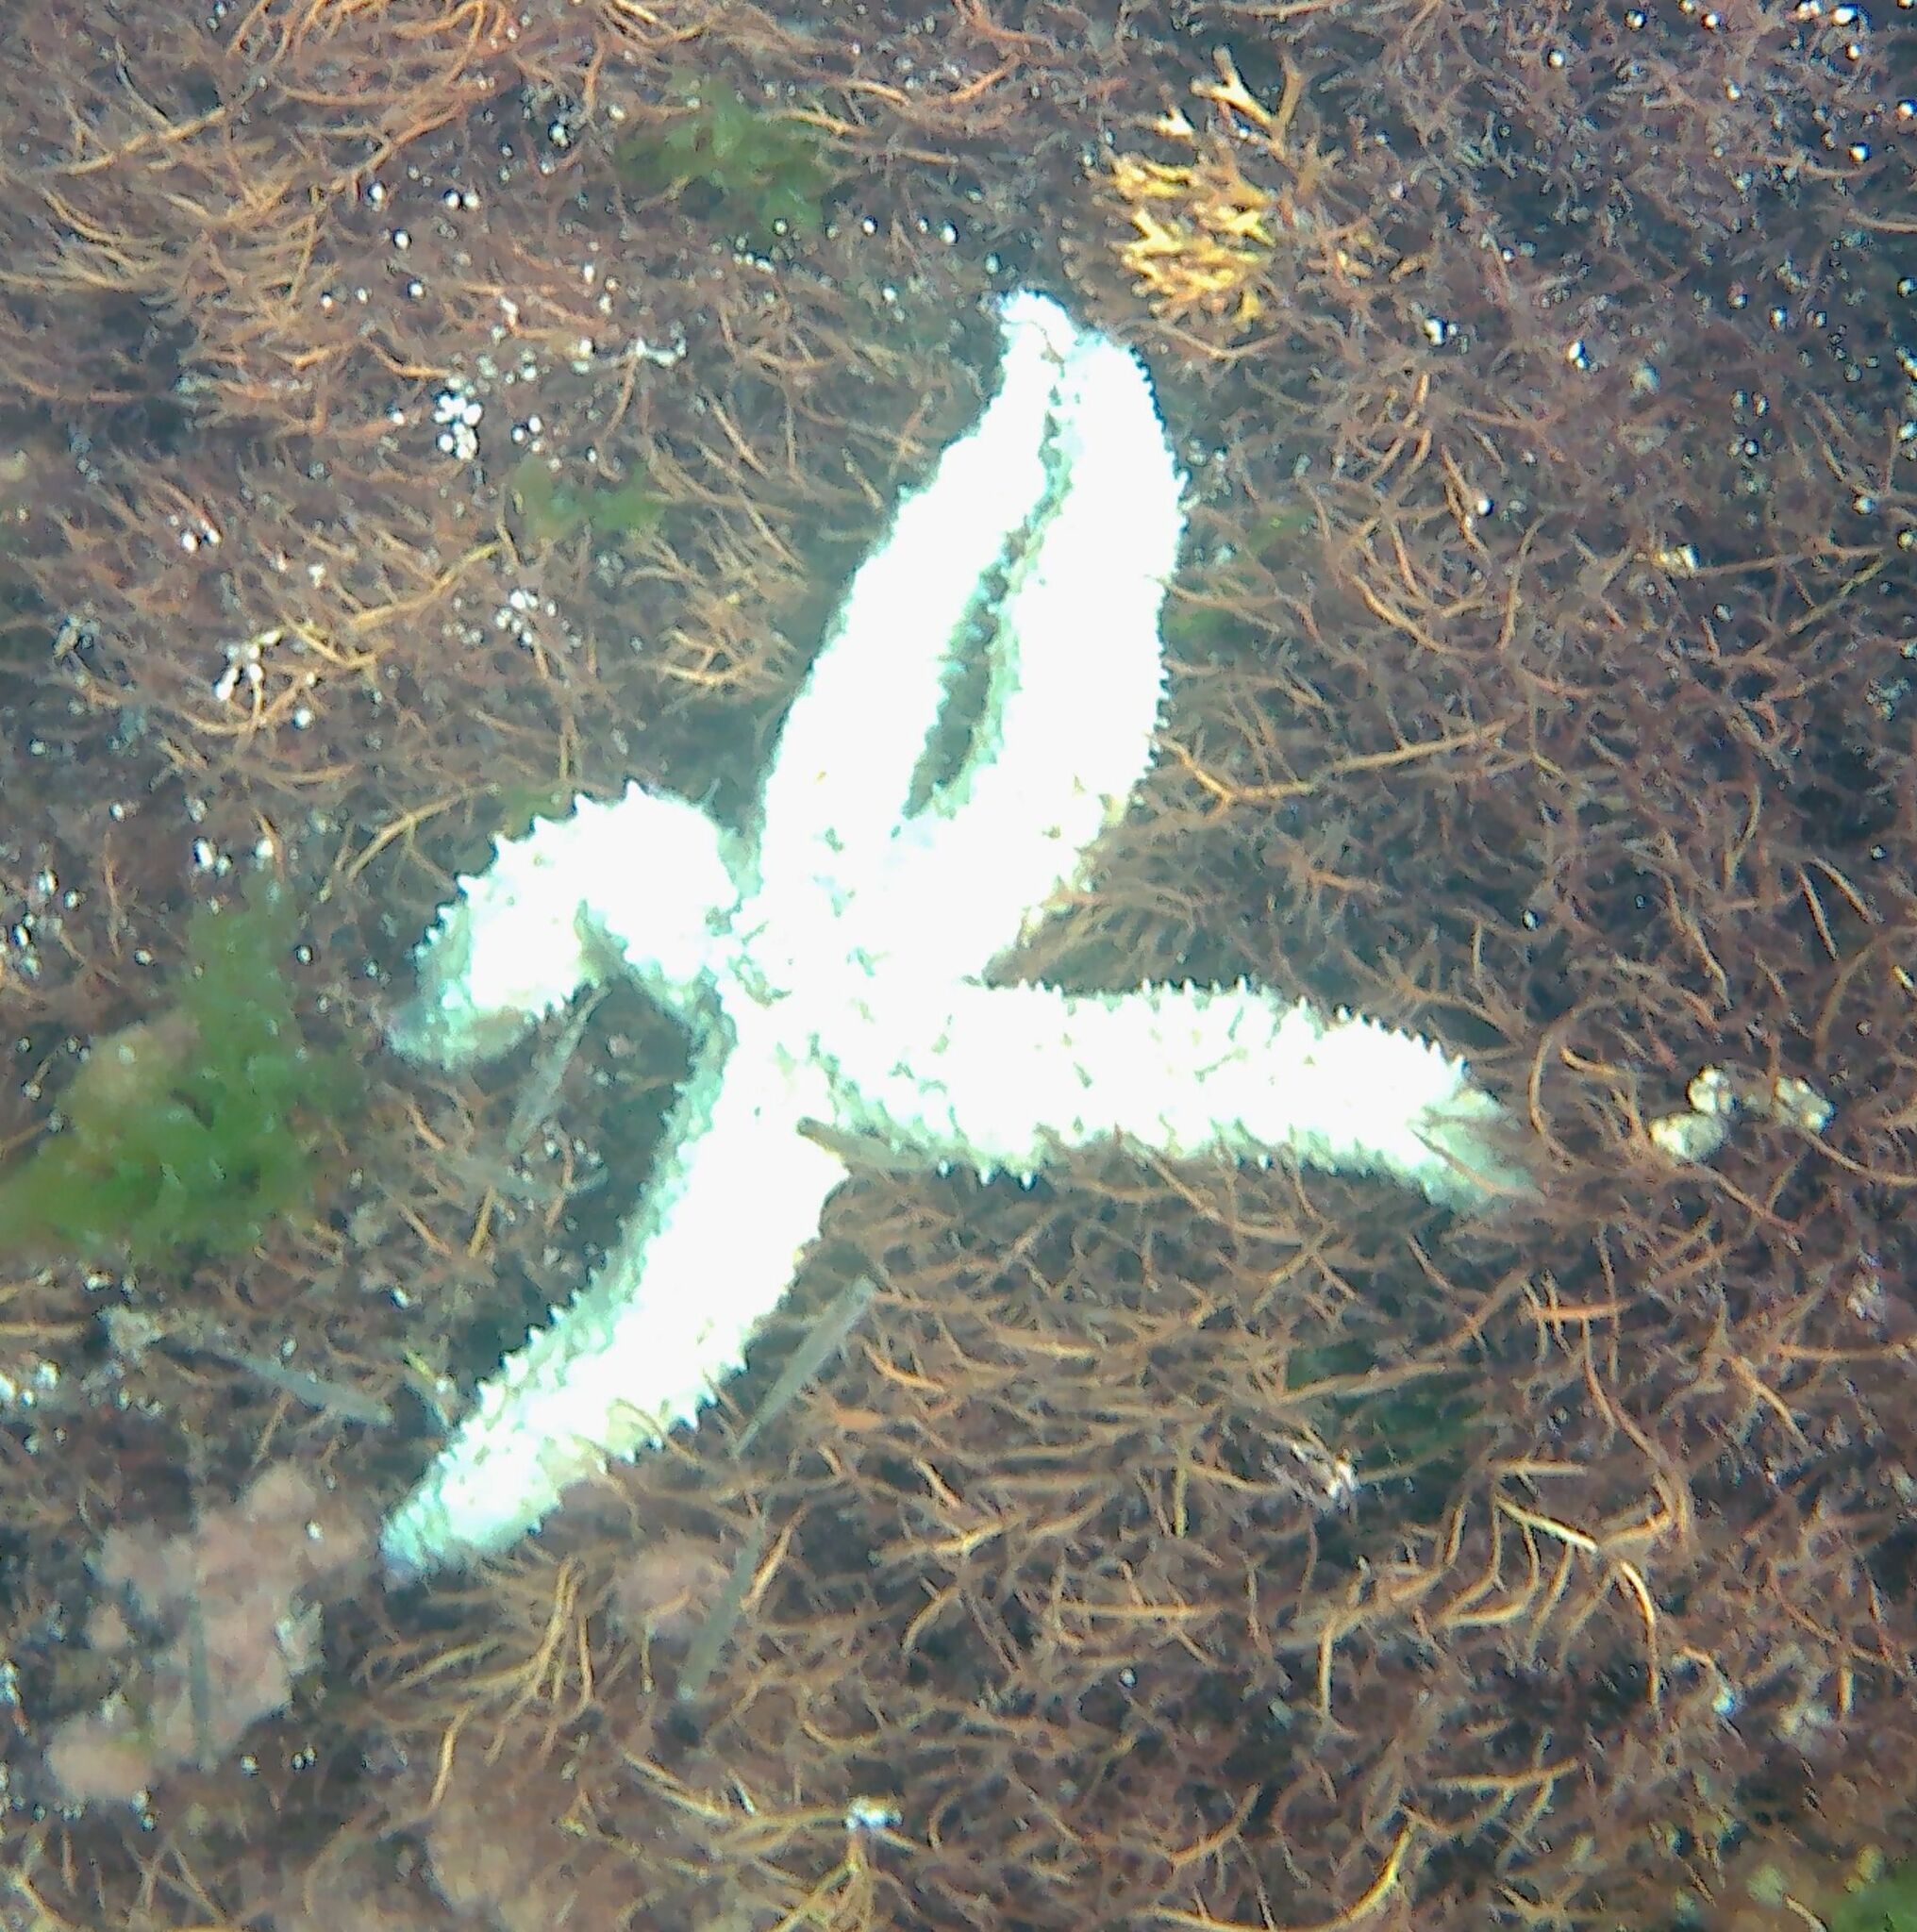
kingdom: Animalia
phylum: Echinodermata
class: Asteroidea
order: Forcipulatida
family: Asteriidae
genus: Marthasterias
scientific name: Marthasterias glacialis
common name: Spiny starfish
